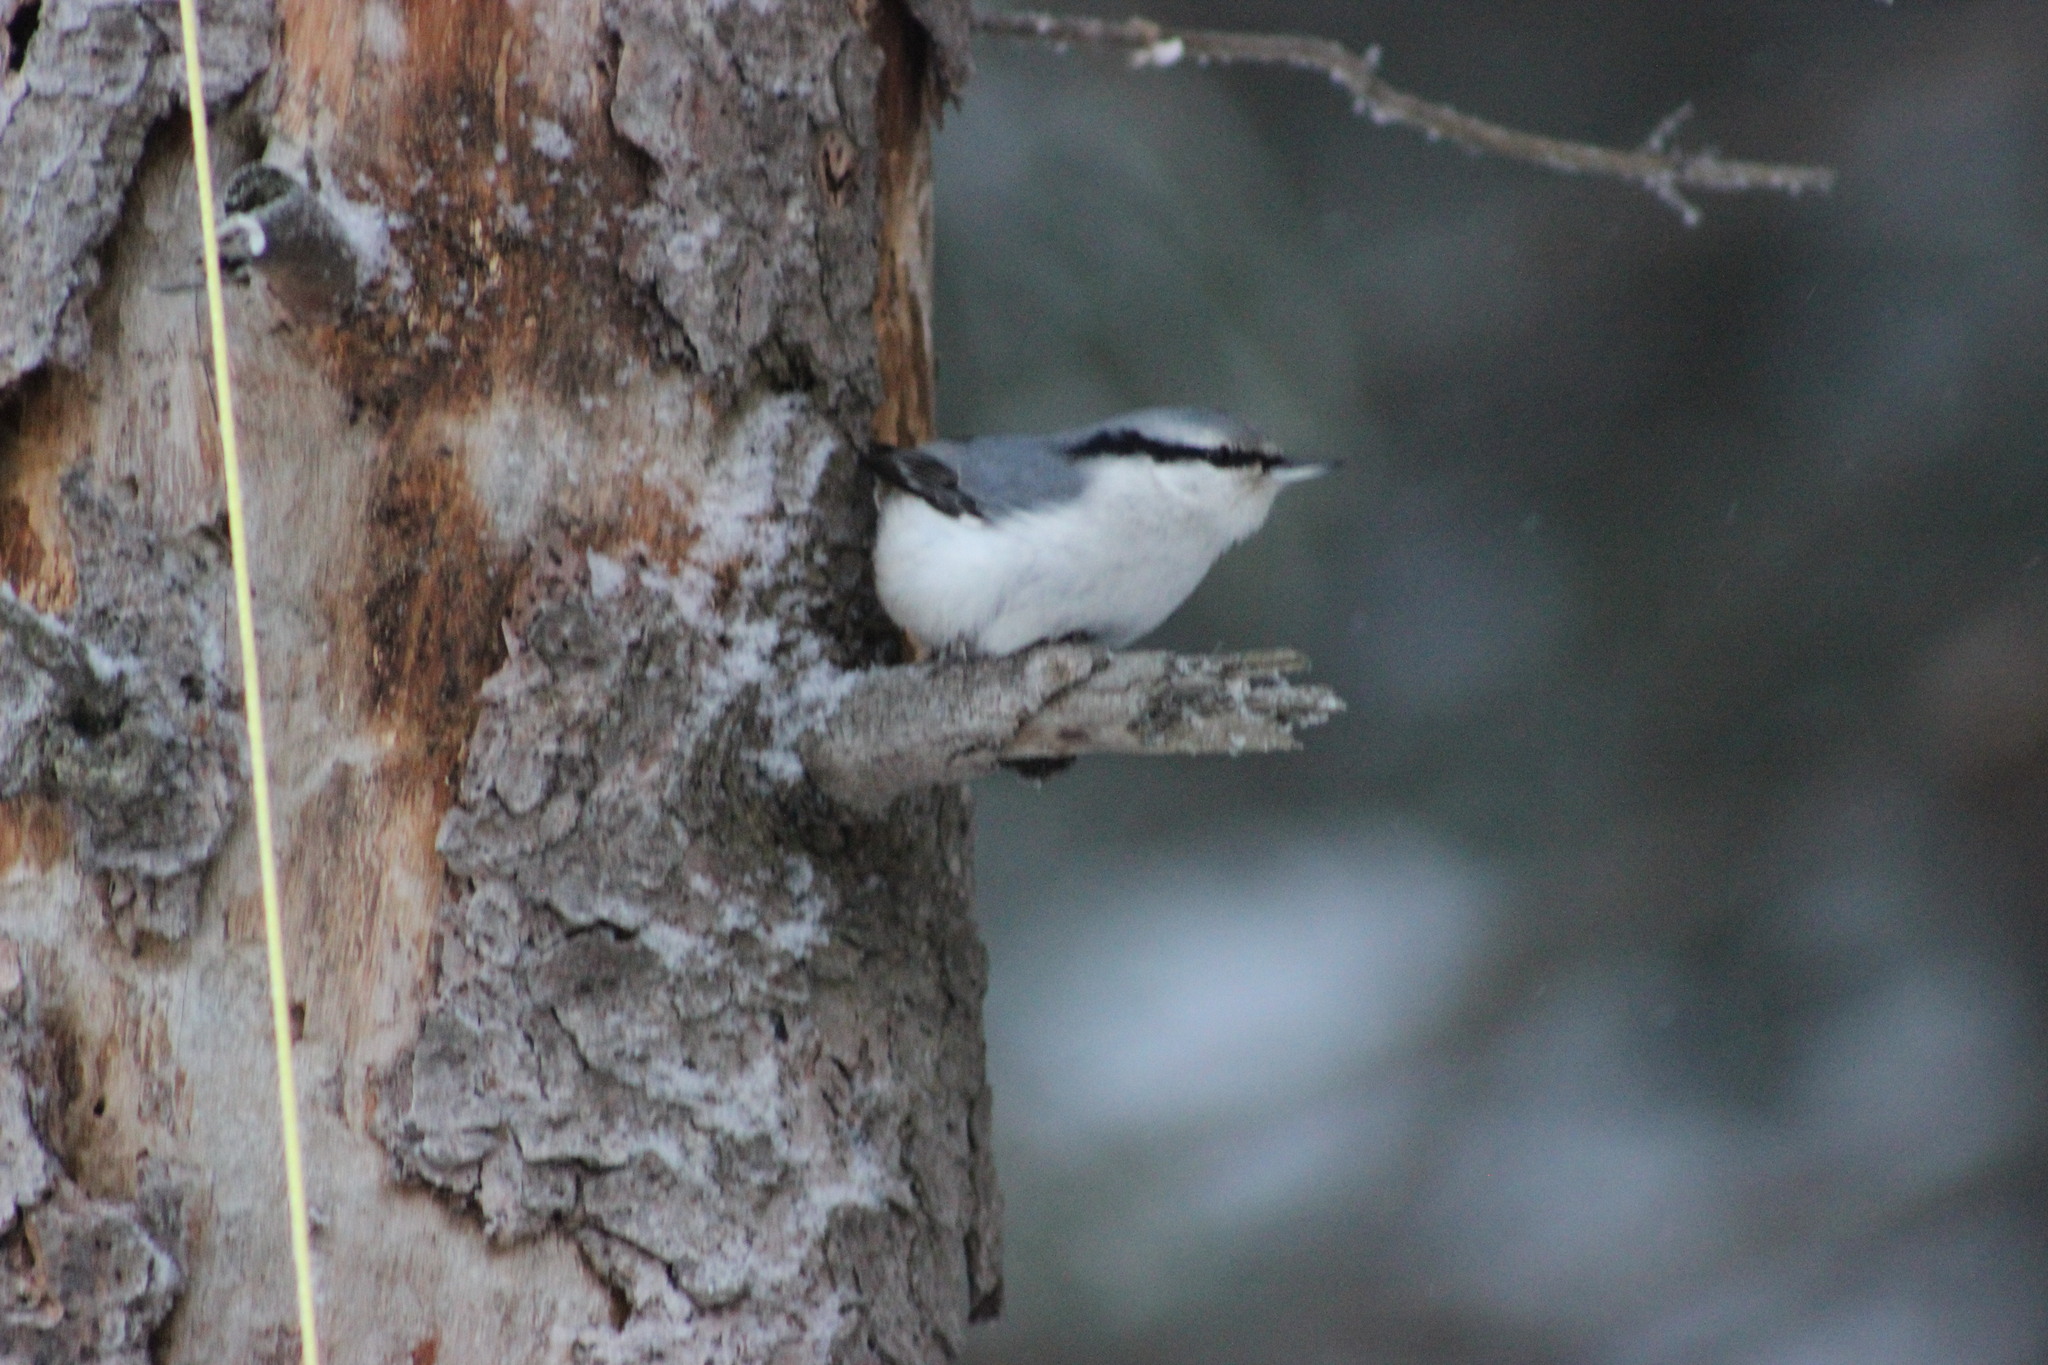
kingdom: Animalia
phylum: Chordata
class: Aves
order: Passeriformes
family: Sittidae
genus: Sitta
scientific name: Sitta europaea
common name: Eurasian nuthatch
